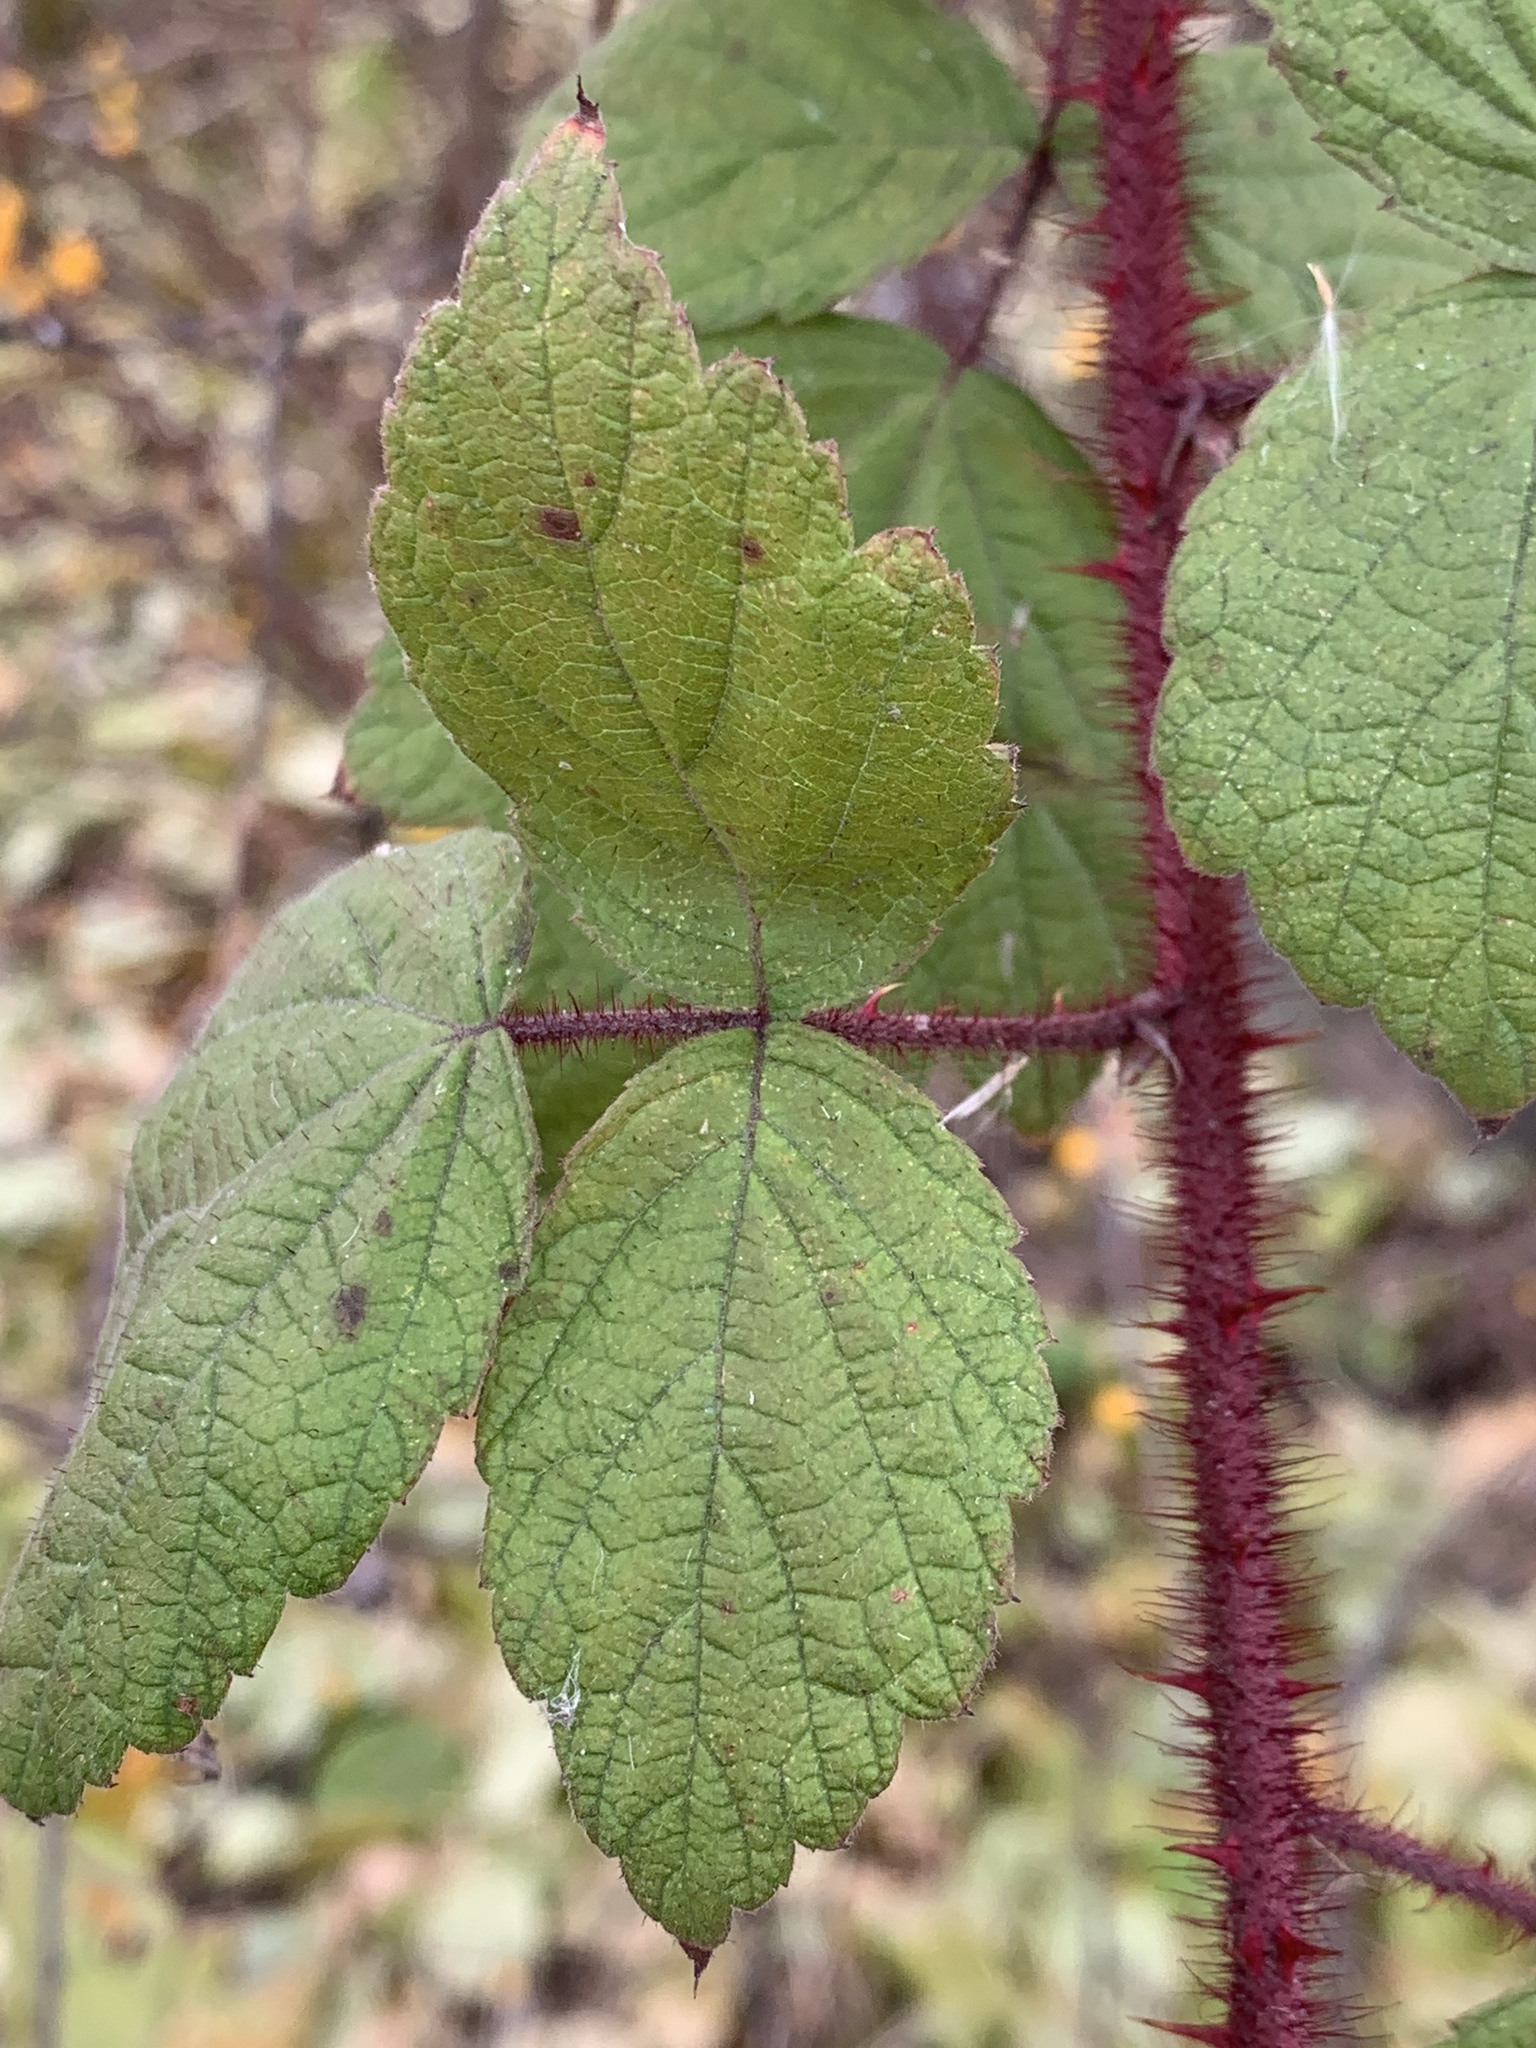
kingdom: Plantae
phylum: Tracheophyta
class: Magnoliopsida
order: Rosales
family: Rosaceae
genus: Rubus
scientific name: Rubus phoenicolasius
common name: Japanese wineberry
